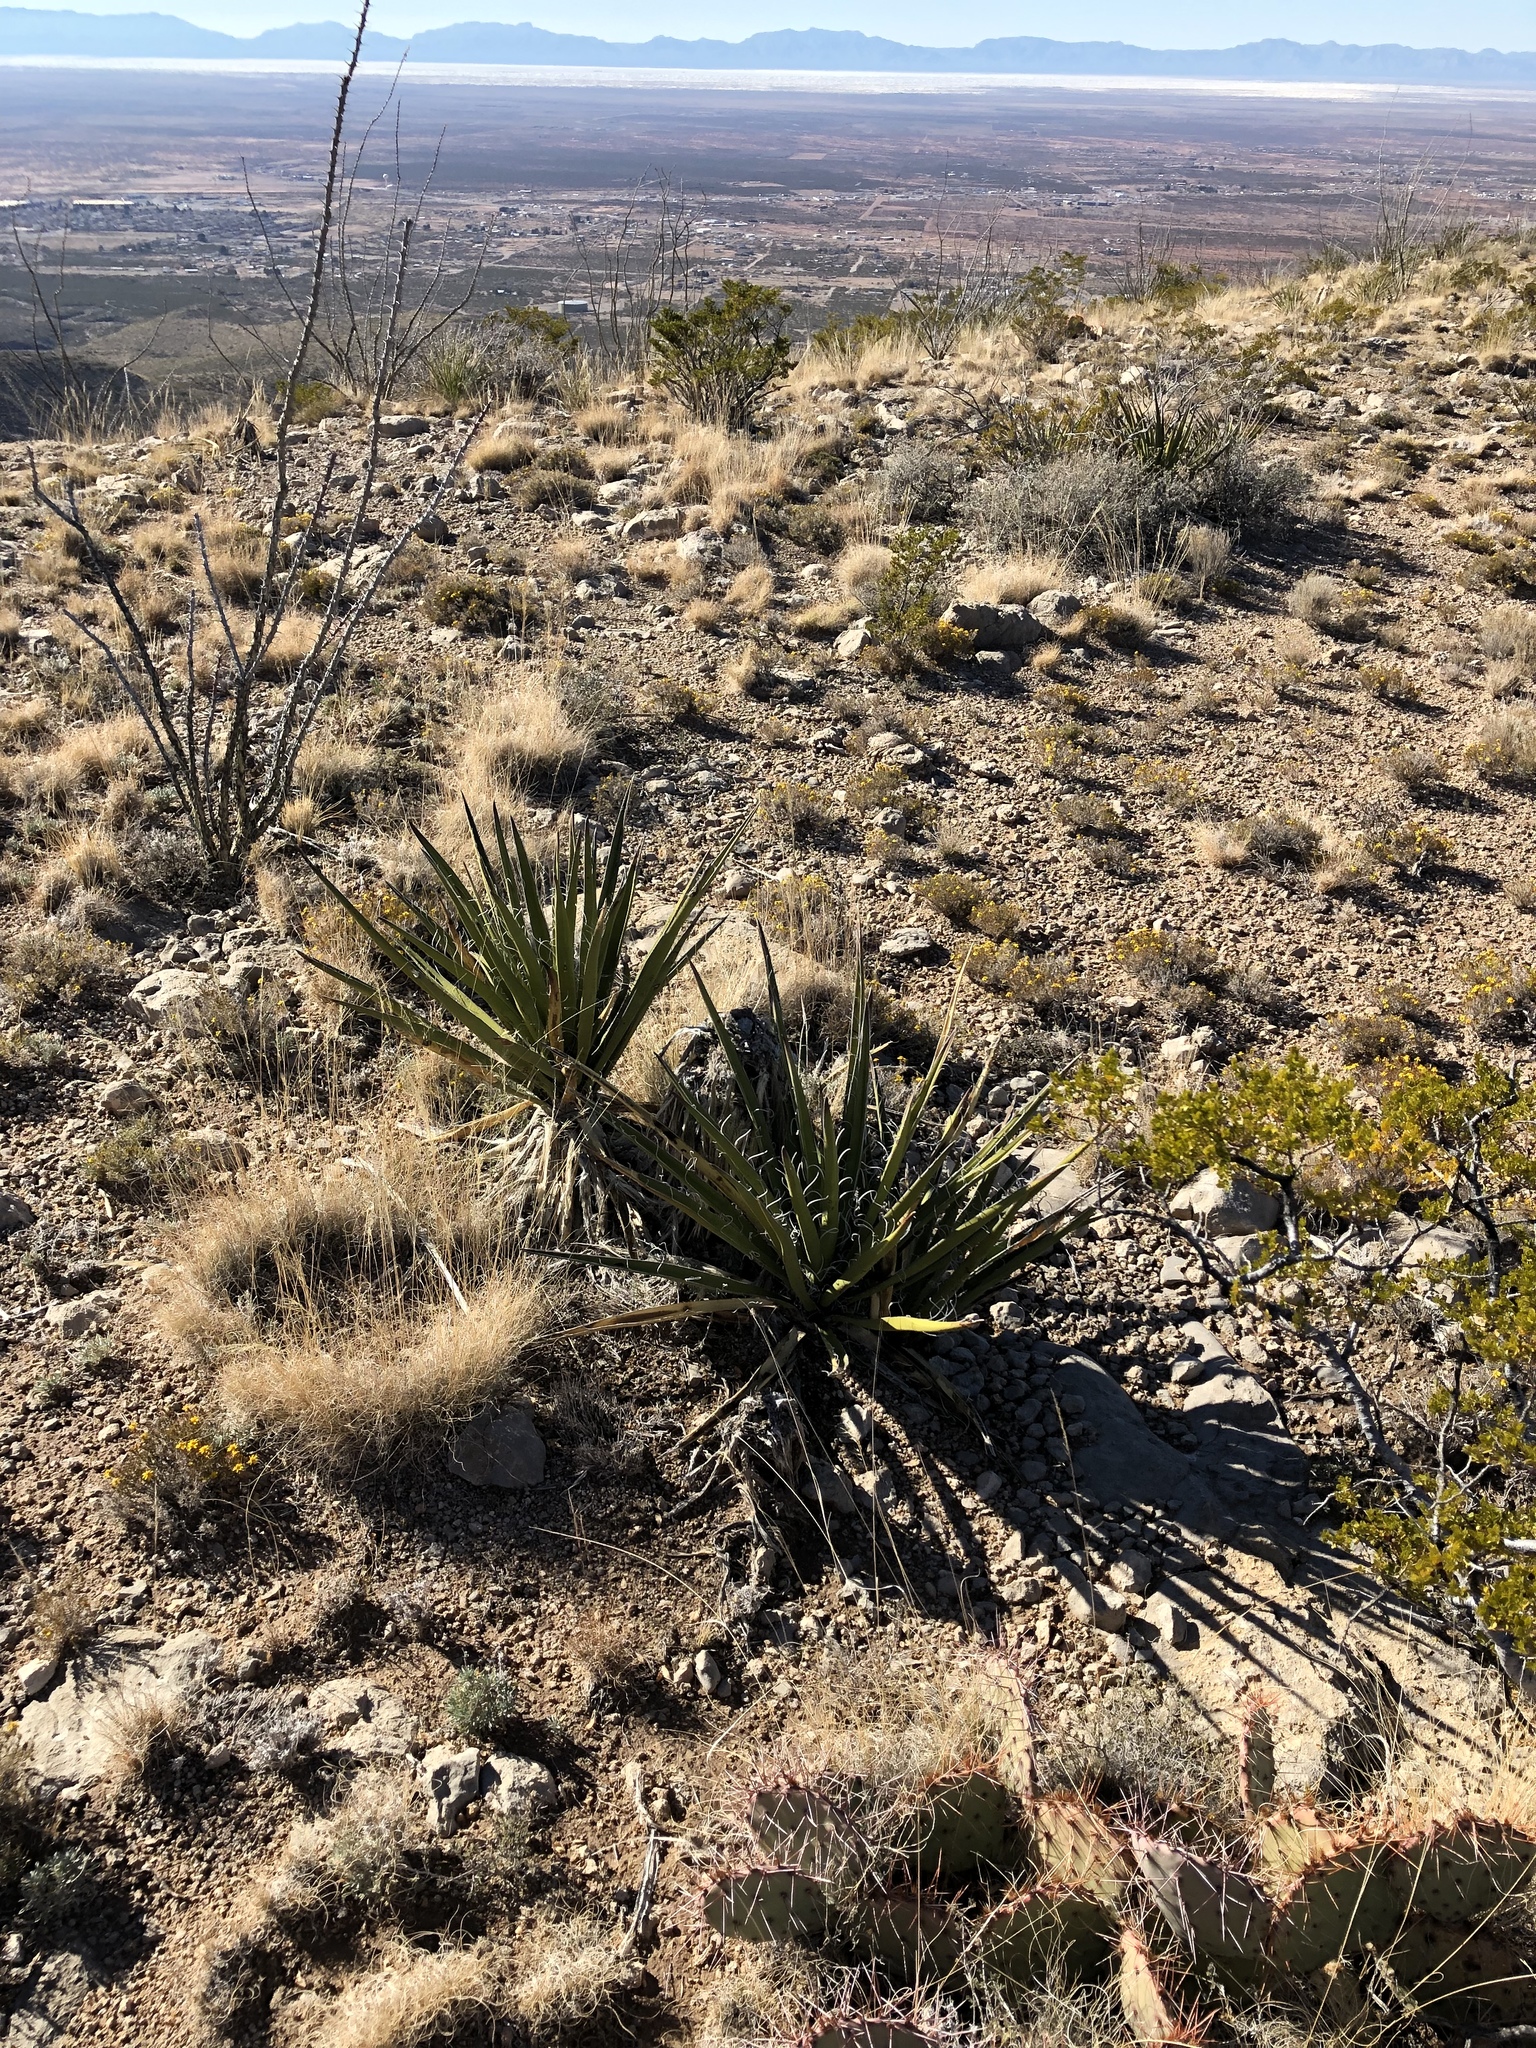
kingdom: Plantae
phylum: Tracheophyta
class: Liliopsida
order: Asparagales
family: Asparagaceae
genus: Yucca
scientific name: Yucca baccata
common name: Banana yucca
